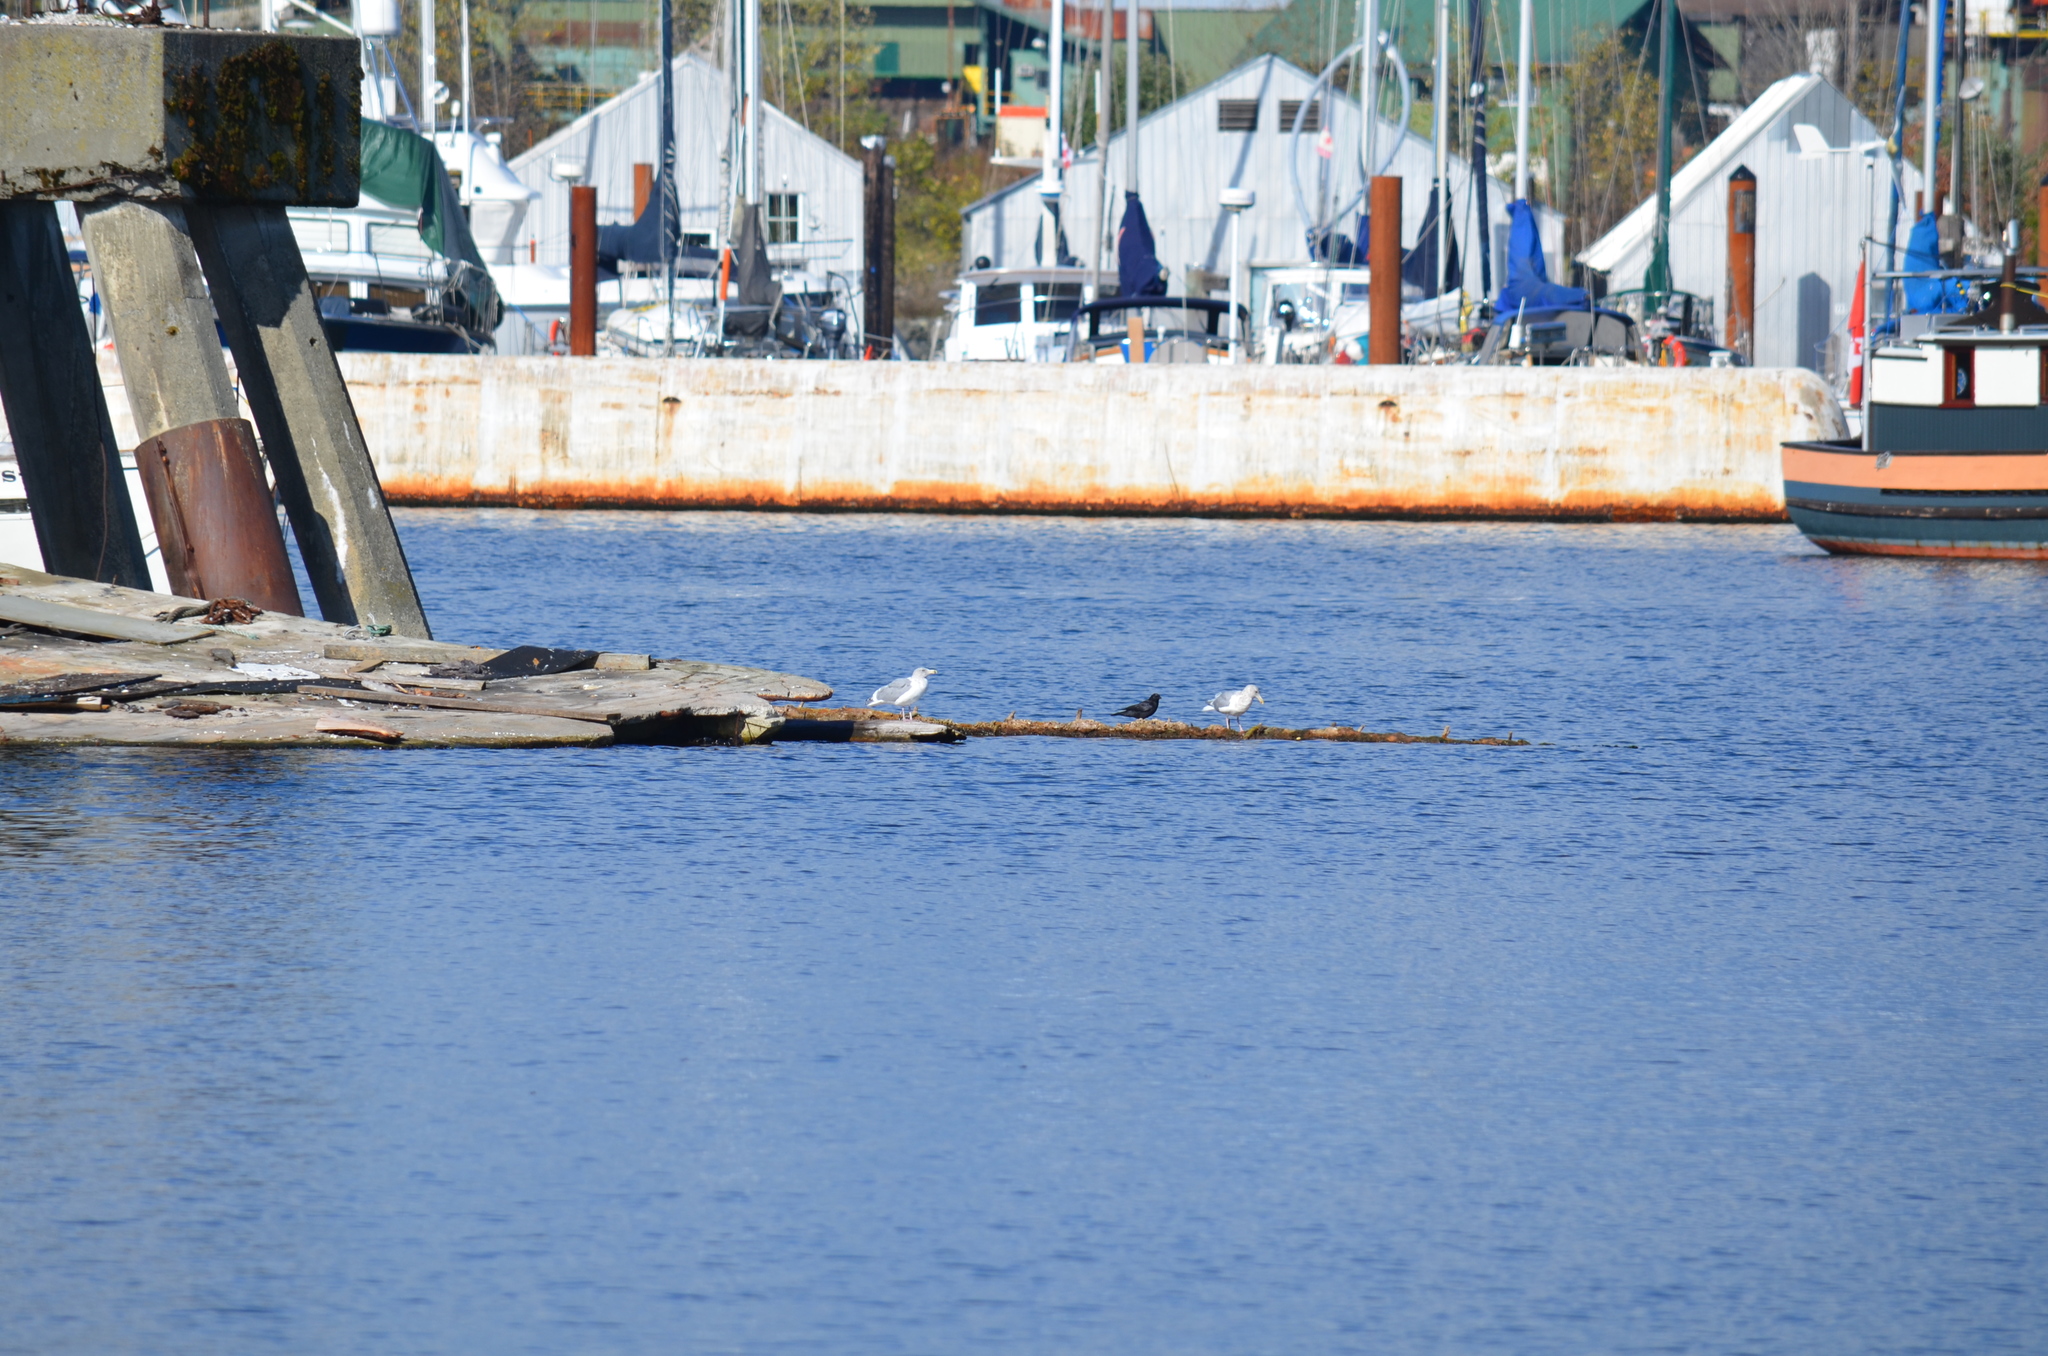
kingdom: Animalia
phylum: Chordata
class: Aves
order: Charadriiformes
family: Laridae
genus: Larus
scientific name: Larus
